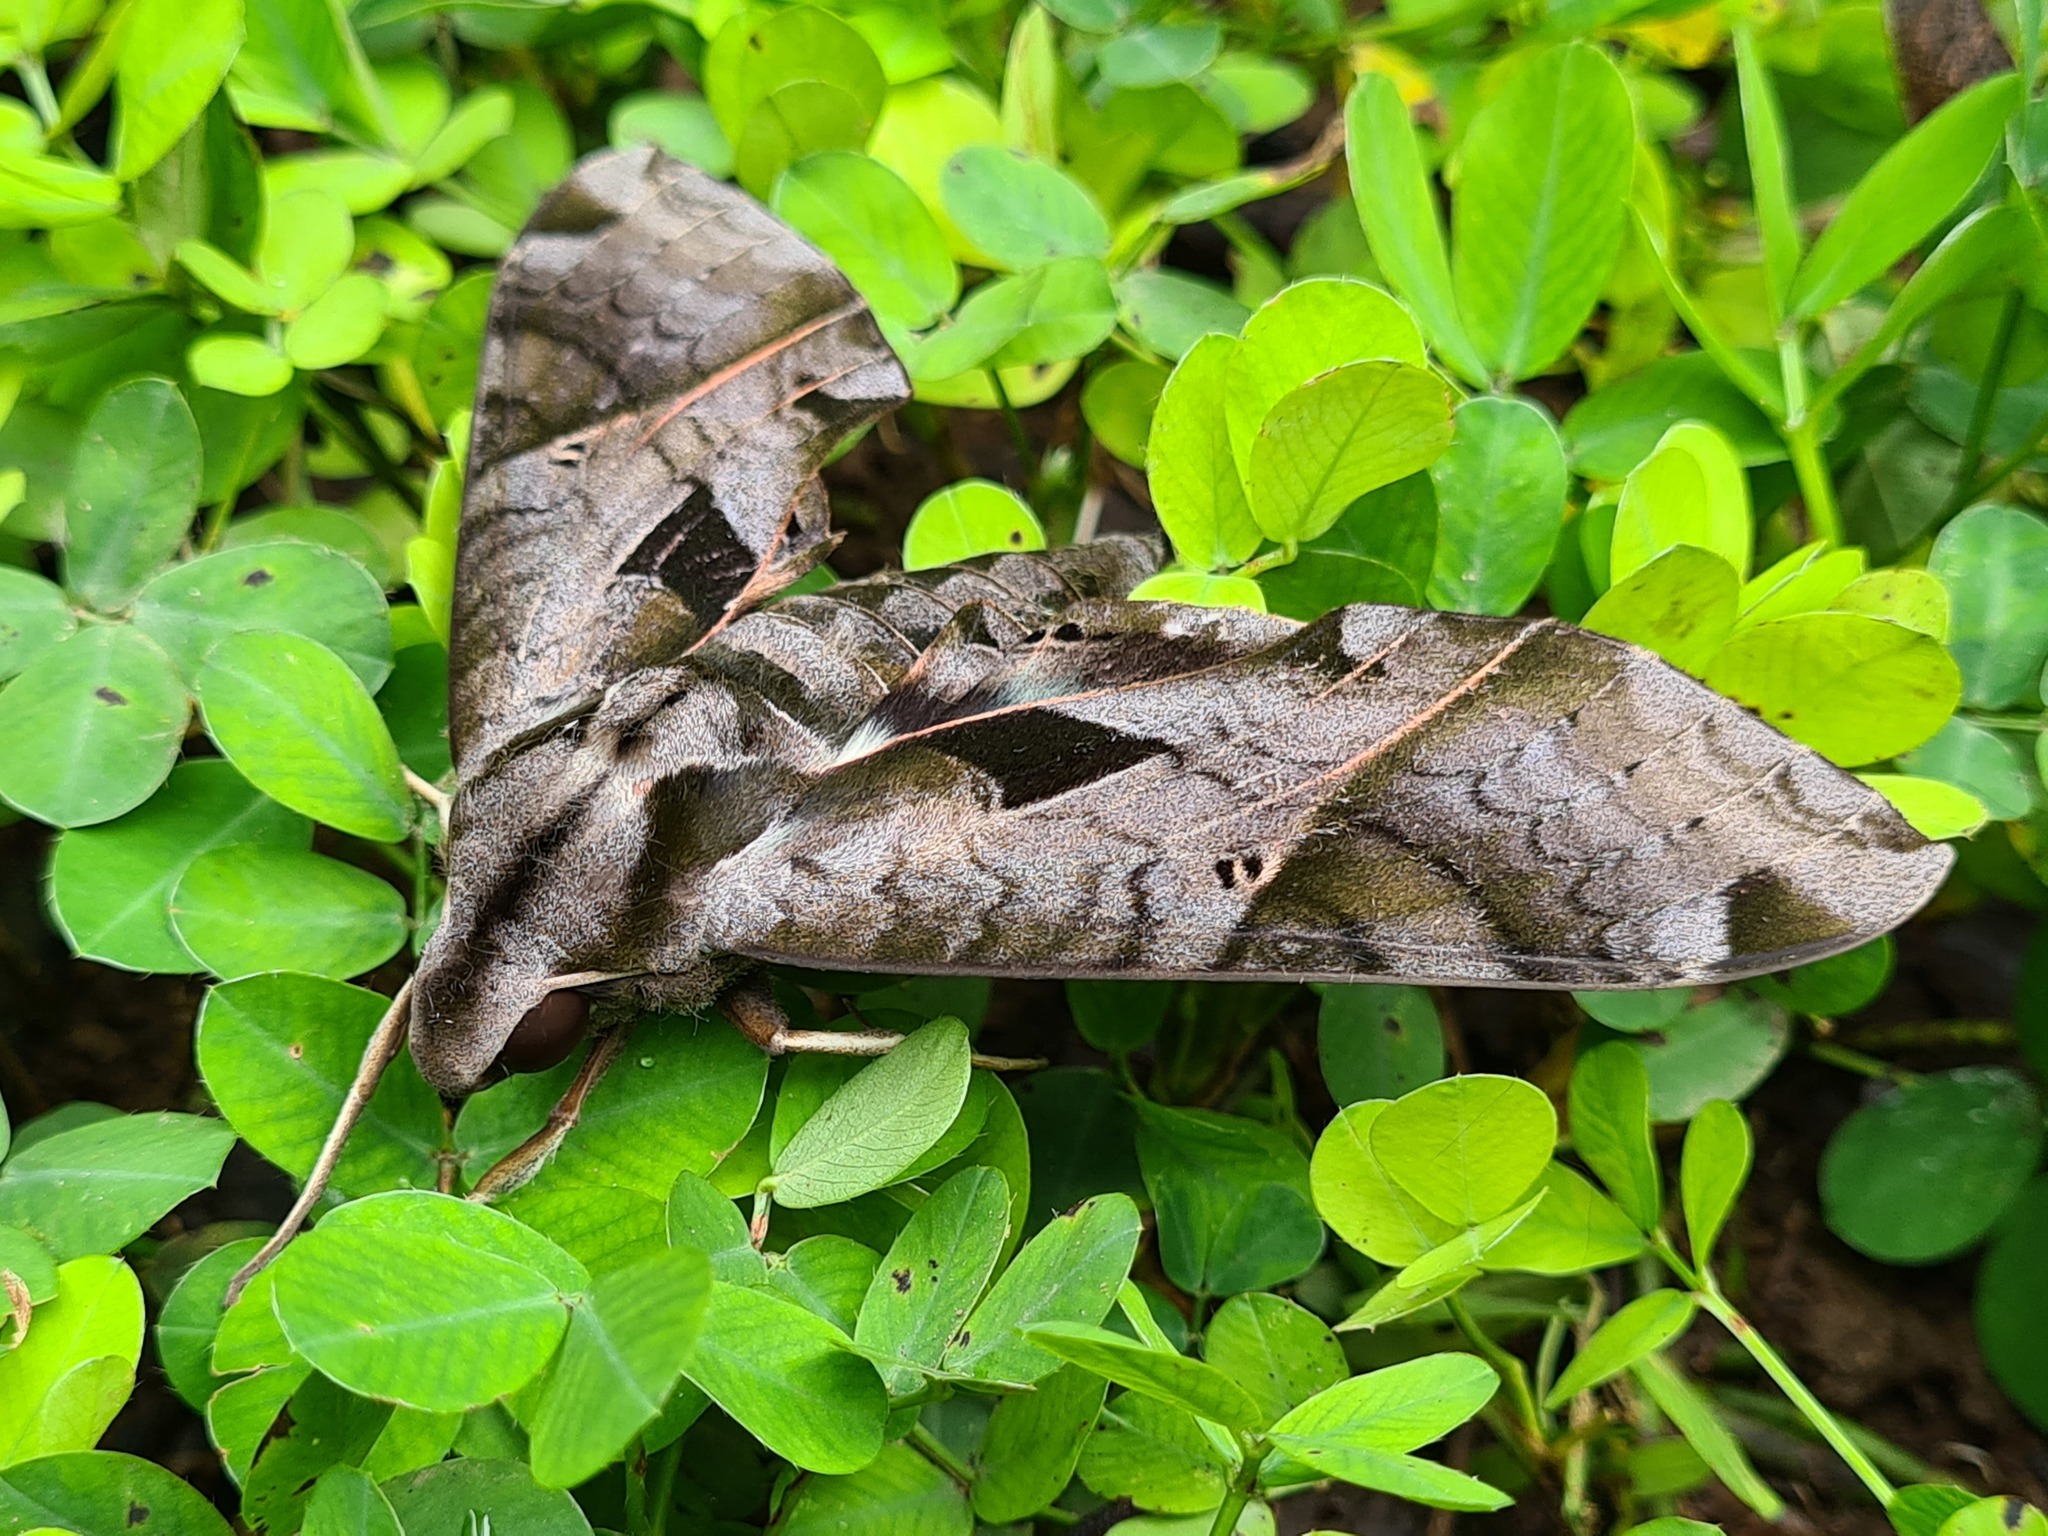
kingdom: Animalia
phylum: Arthropoda
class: Insecta
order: Lepidoptera
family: Sphingidae
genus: Eumorpha
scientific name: Eumorpha satellitia
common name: Satellite sphinx
